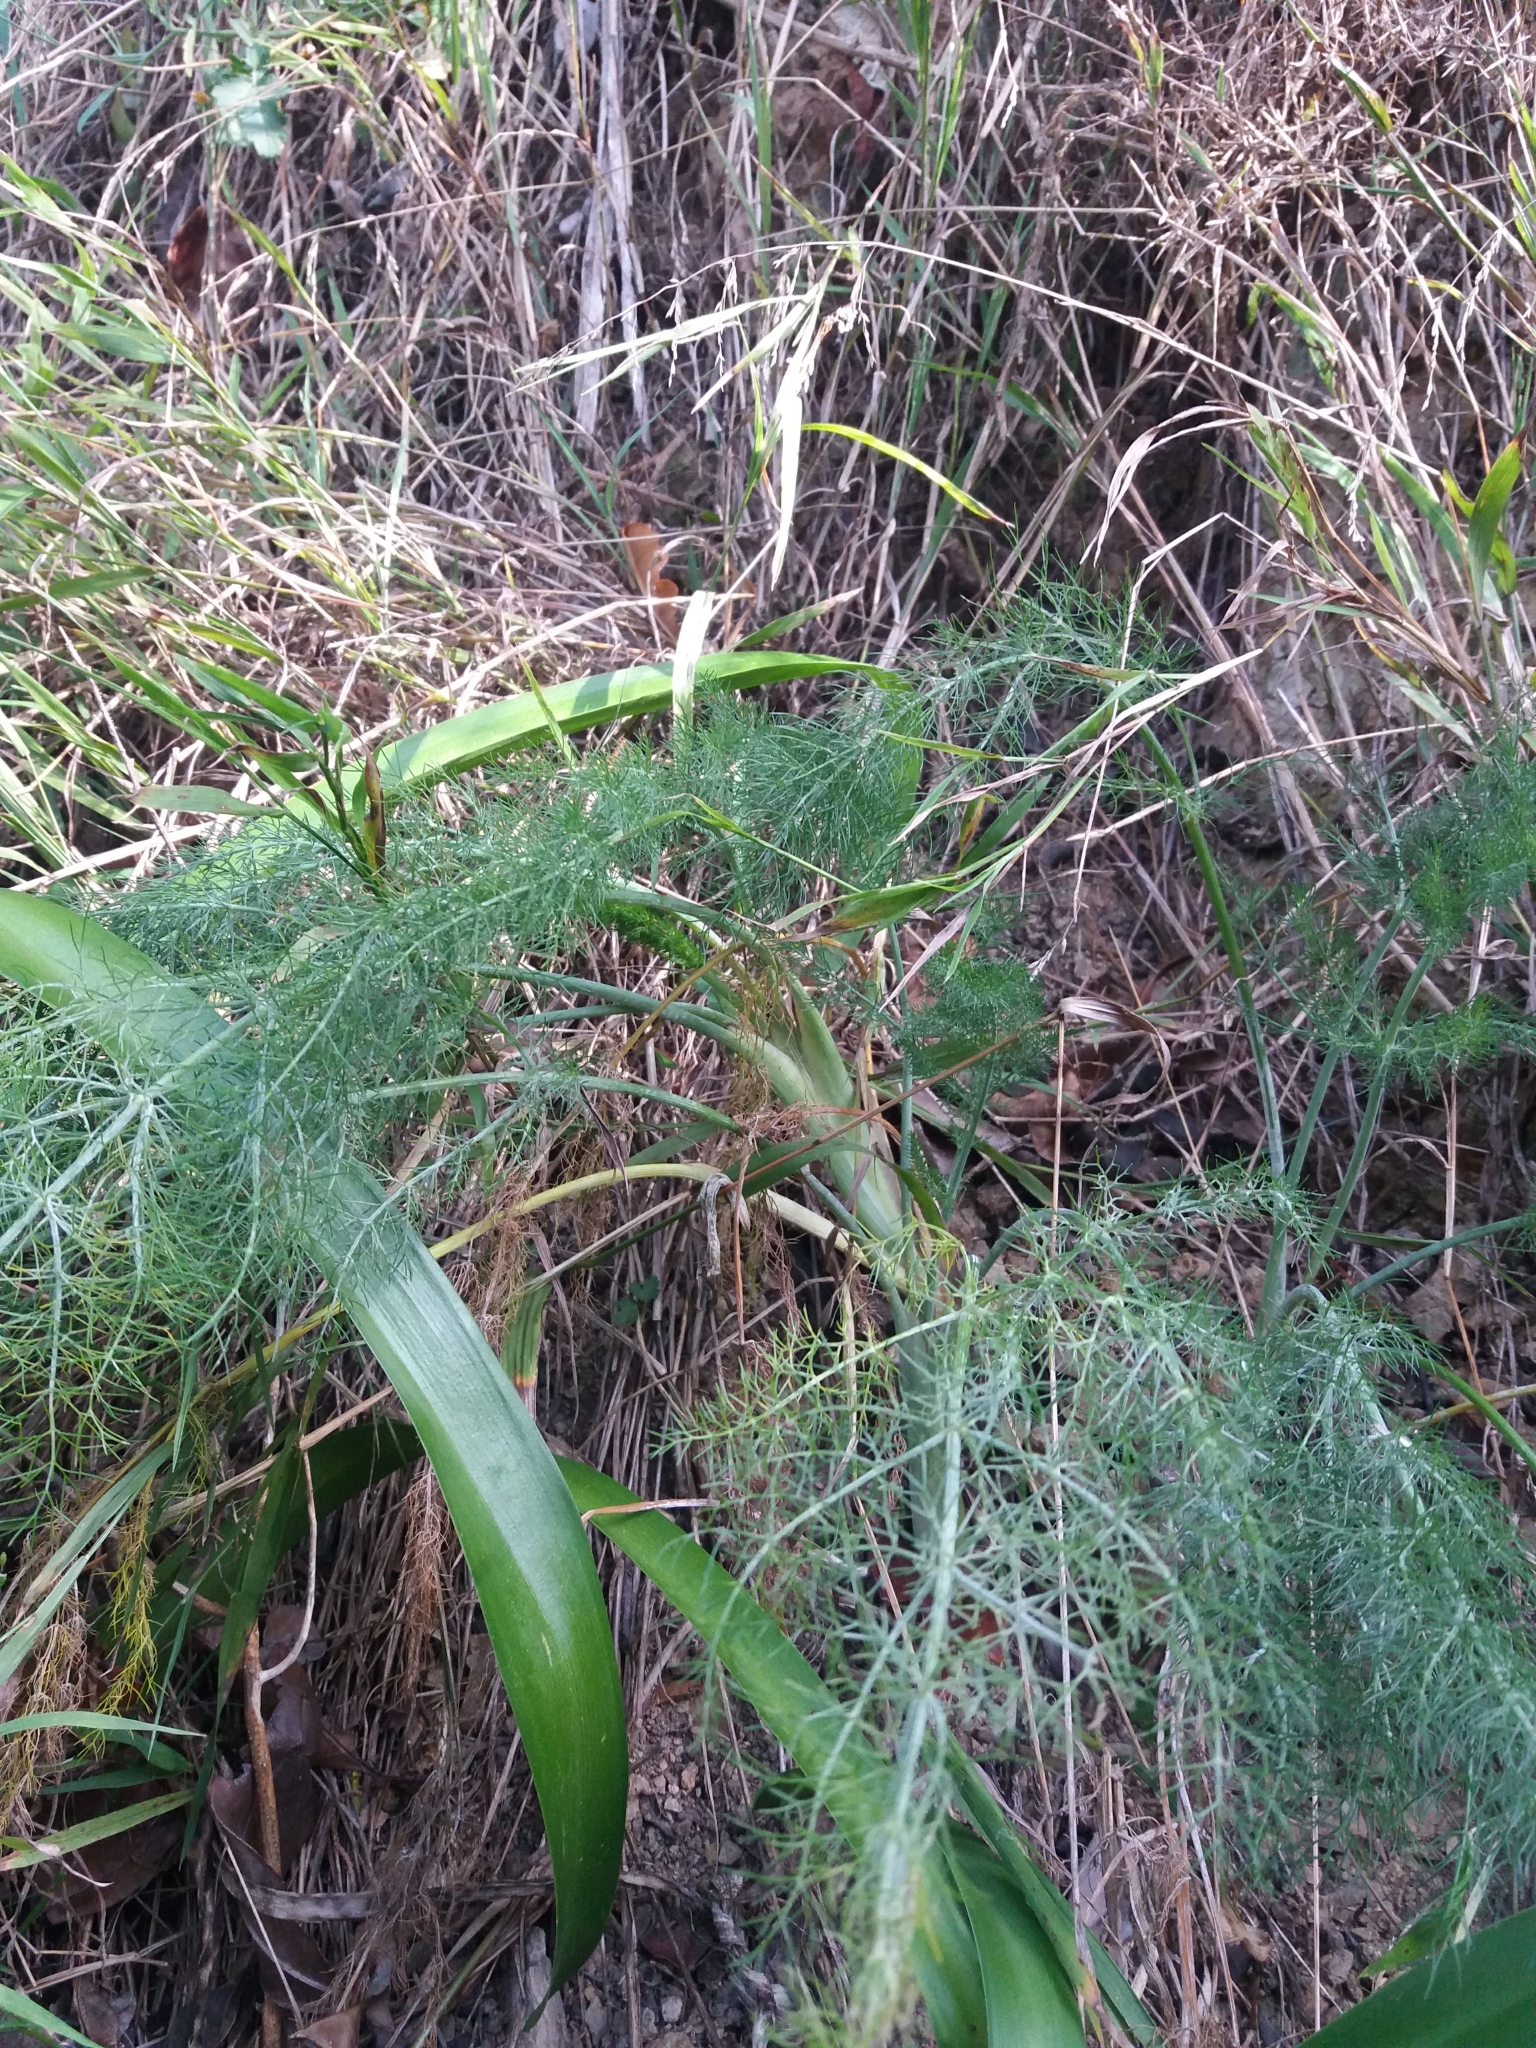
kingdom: Plantae
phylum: Tracheophyta
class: Magnoliopsida
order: Apiales
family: Apiaceae
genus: Foeniculum
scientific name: Foeniculum vulgare
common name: Fennel
